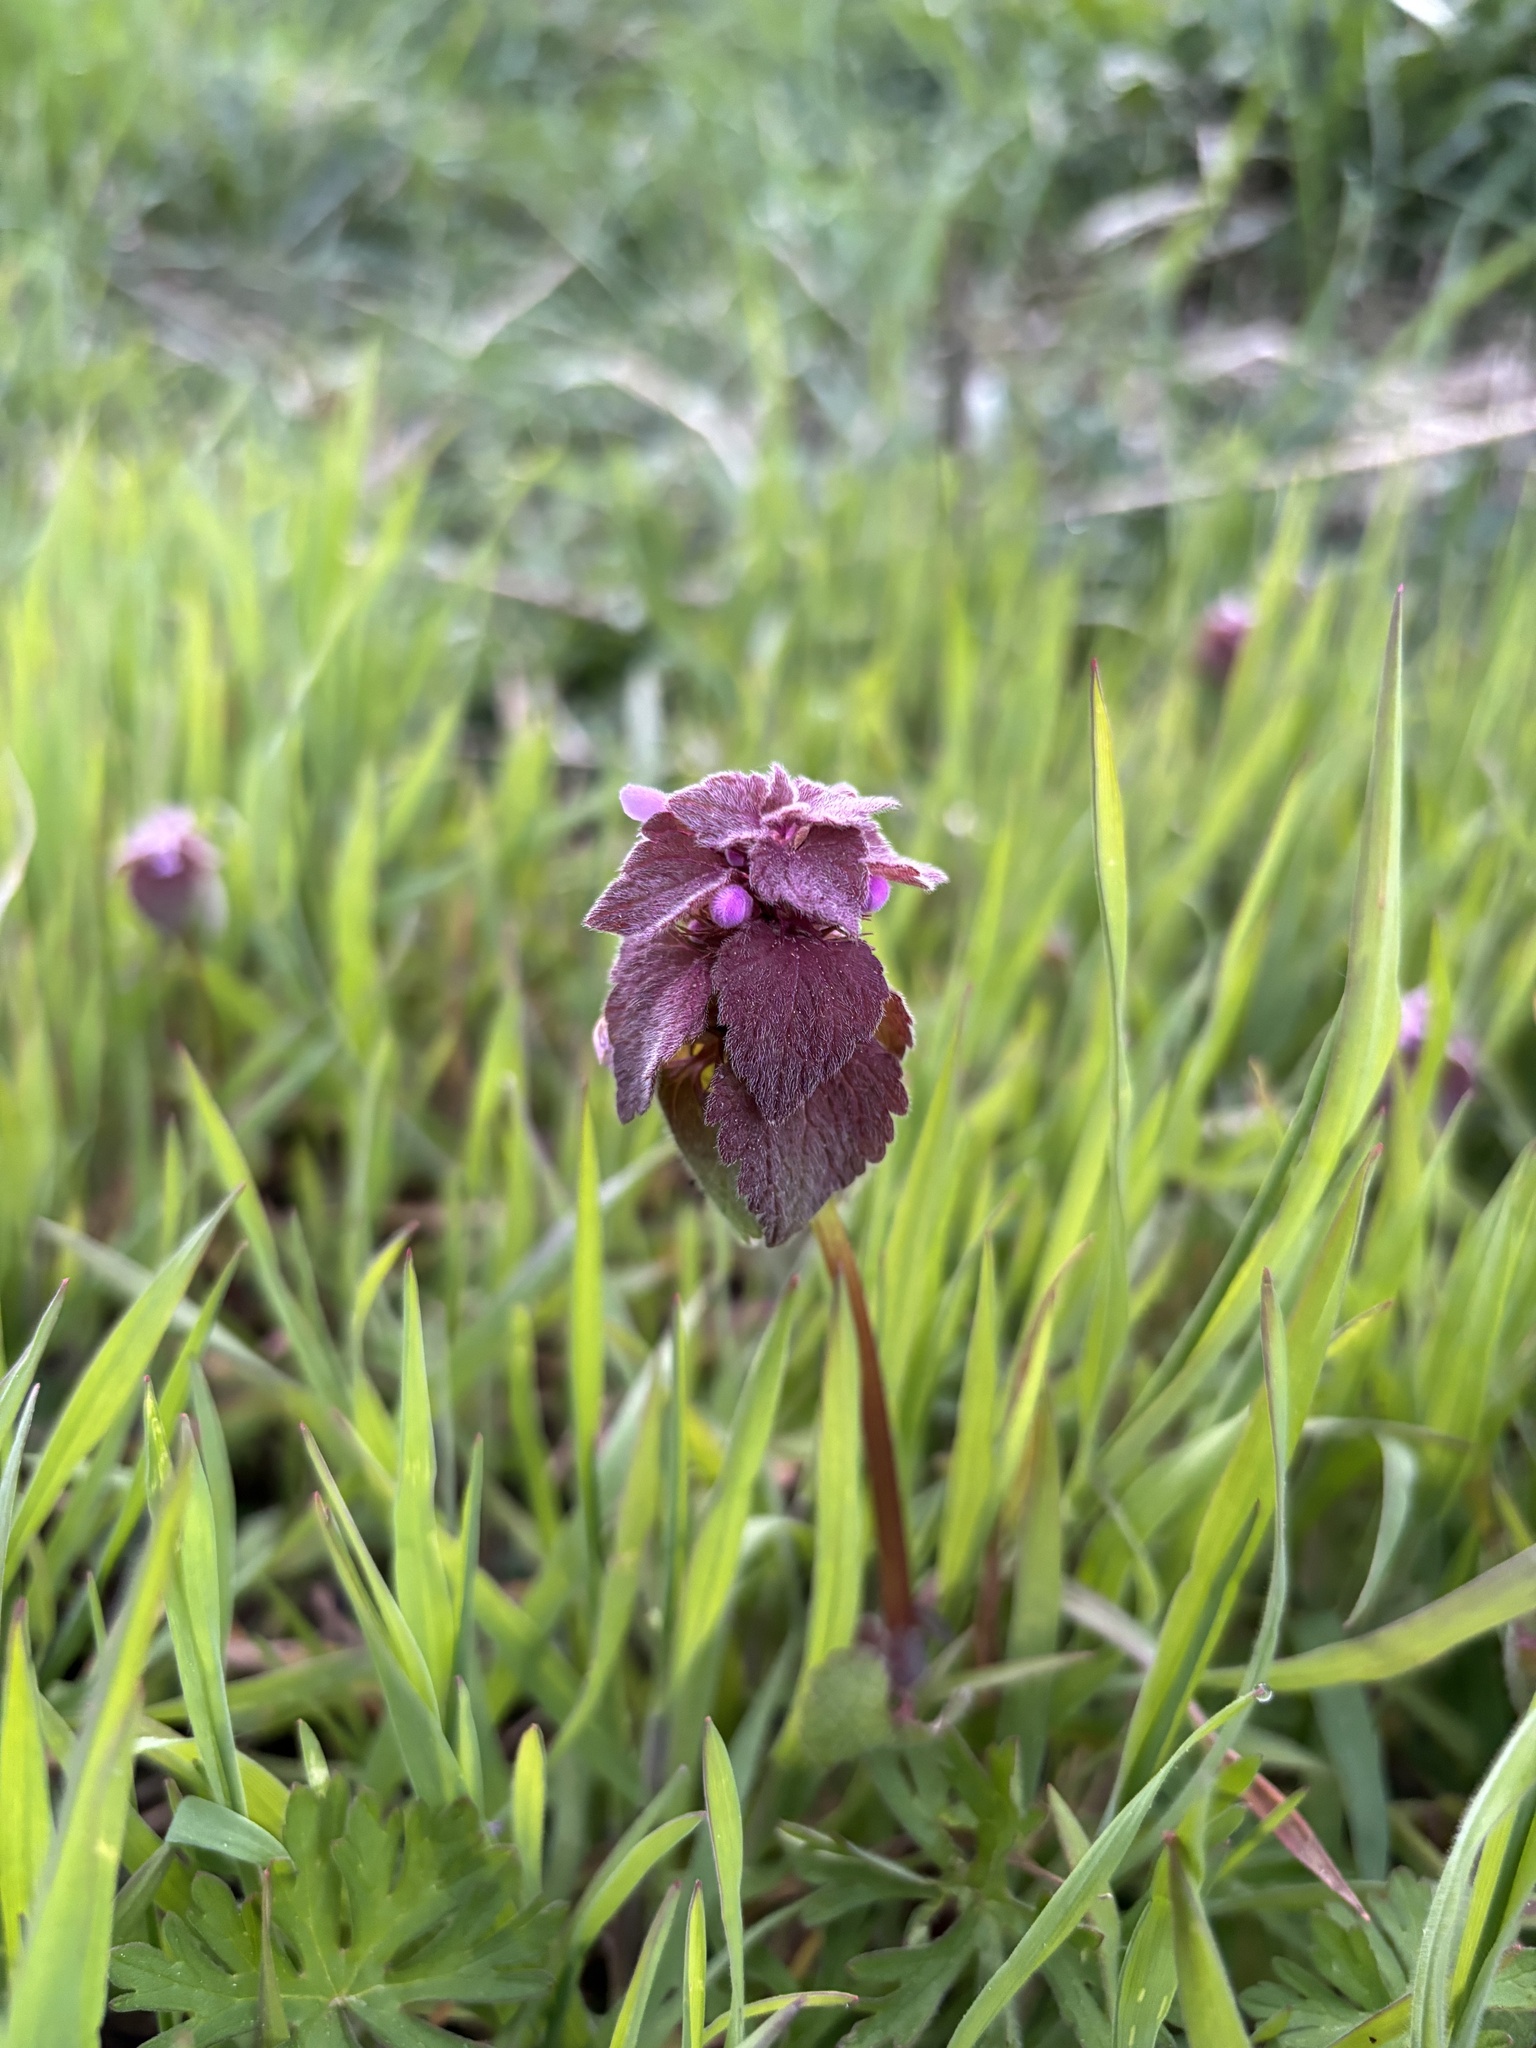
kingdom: Plantae
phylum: Tracheophyta
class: Magnoliopsida
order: Lamiales
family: Lamiaceae
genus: Lamium
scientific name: Lamium purpureum
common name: Red dead-nettle
